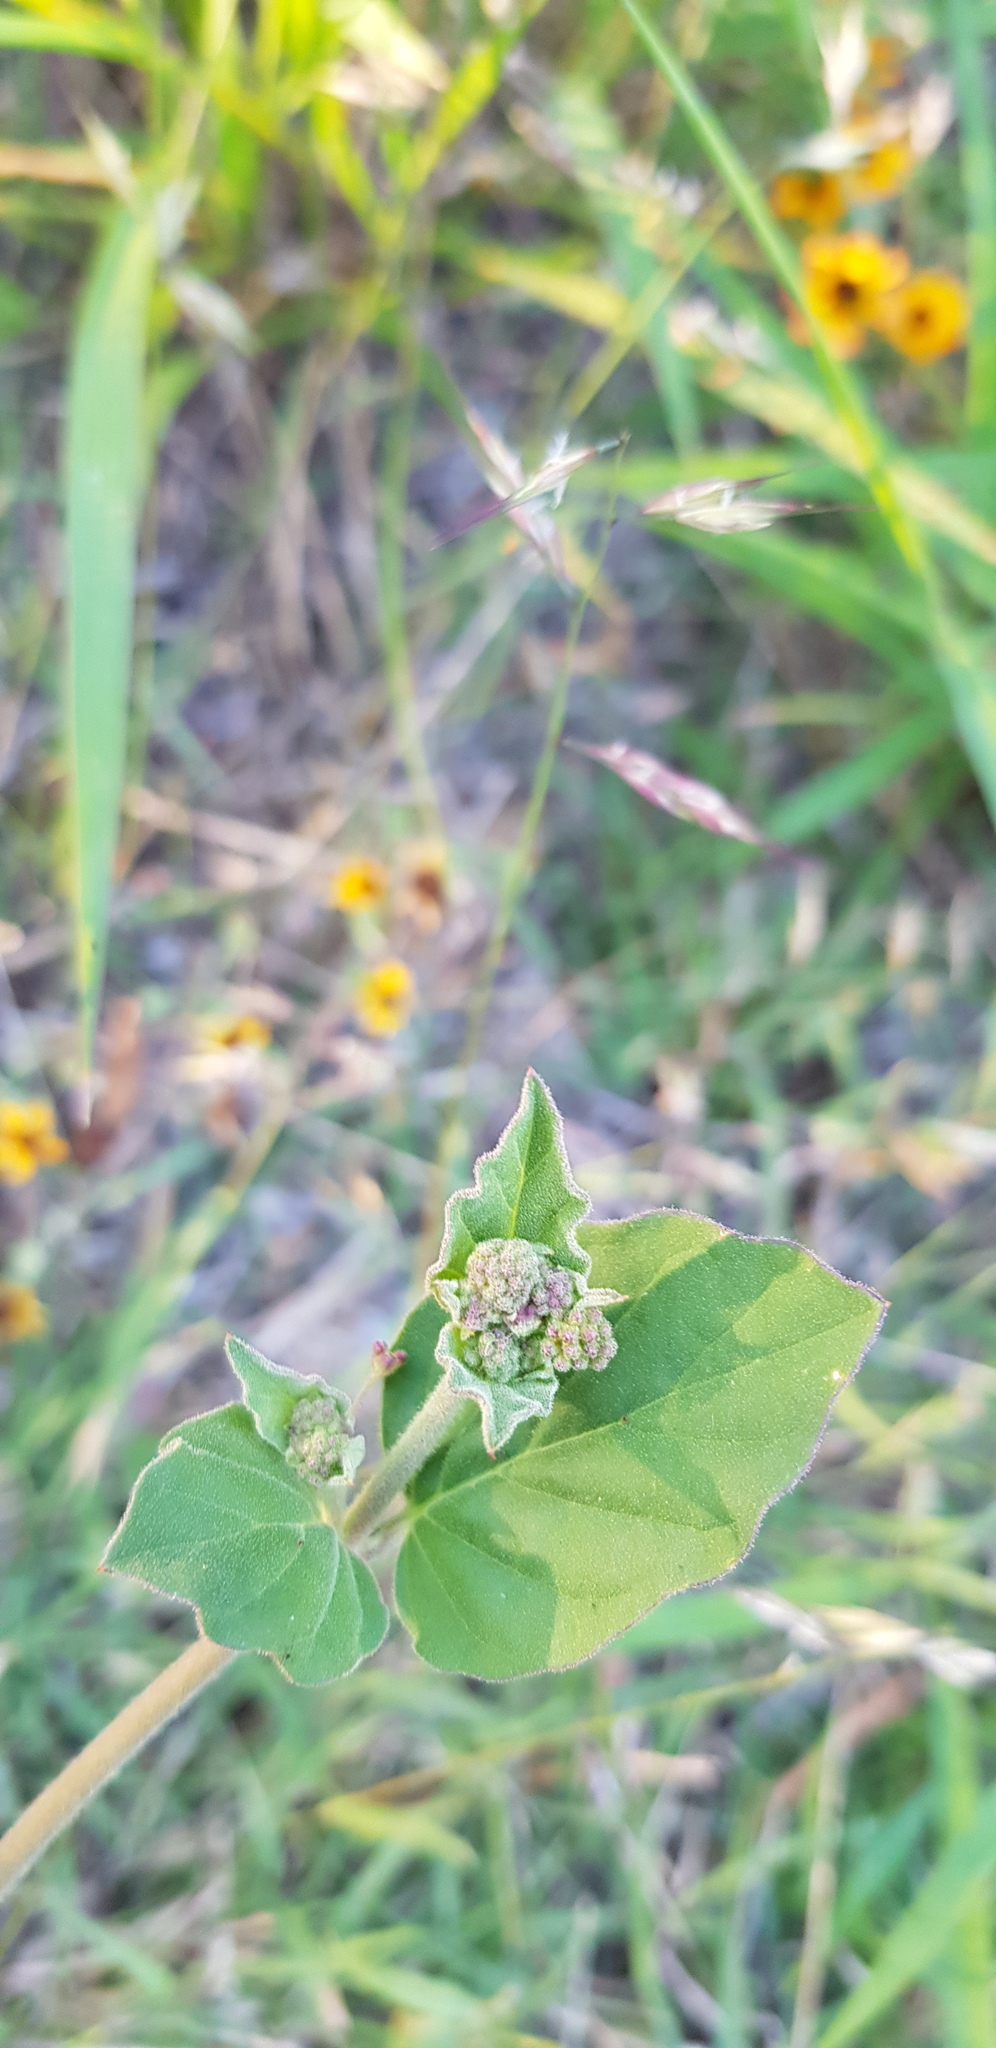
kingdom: Plantae
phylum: Tracheophyta
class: Magnoliopsida
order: Caryophyllales
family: Nyctaginaceae
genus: Boerhavia
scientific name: Boerhavia coccinea
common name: Scarlet spiderling
